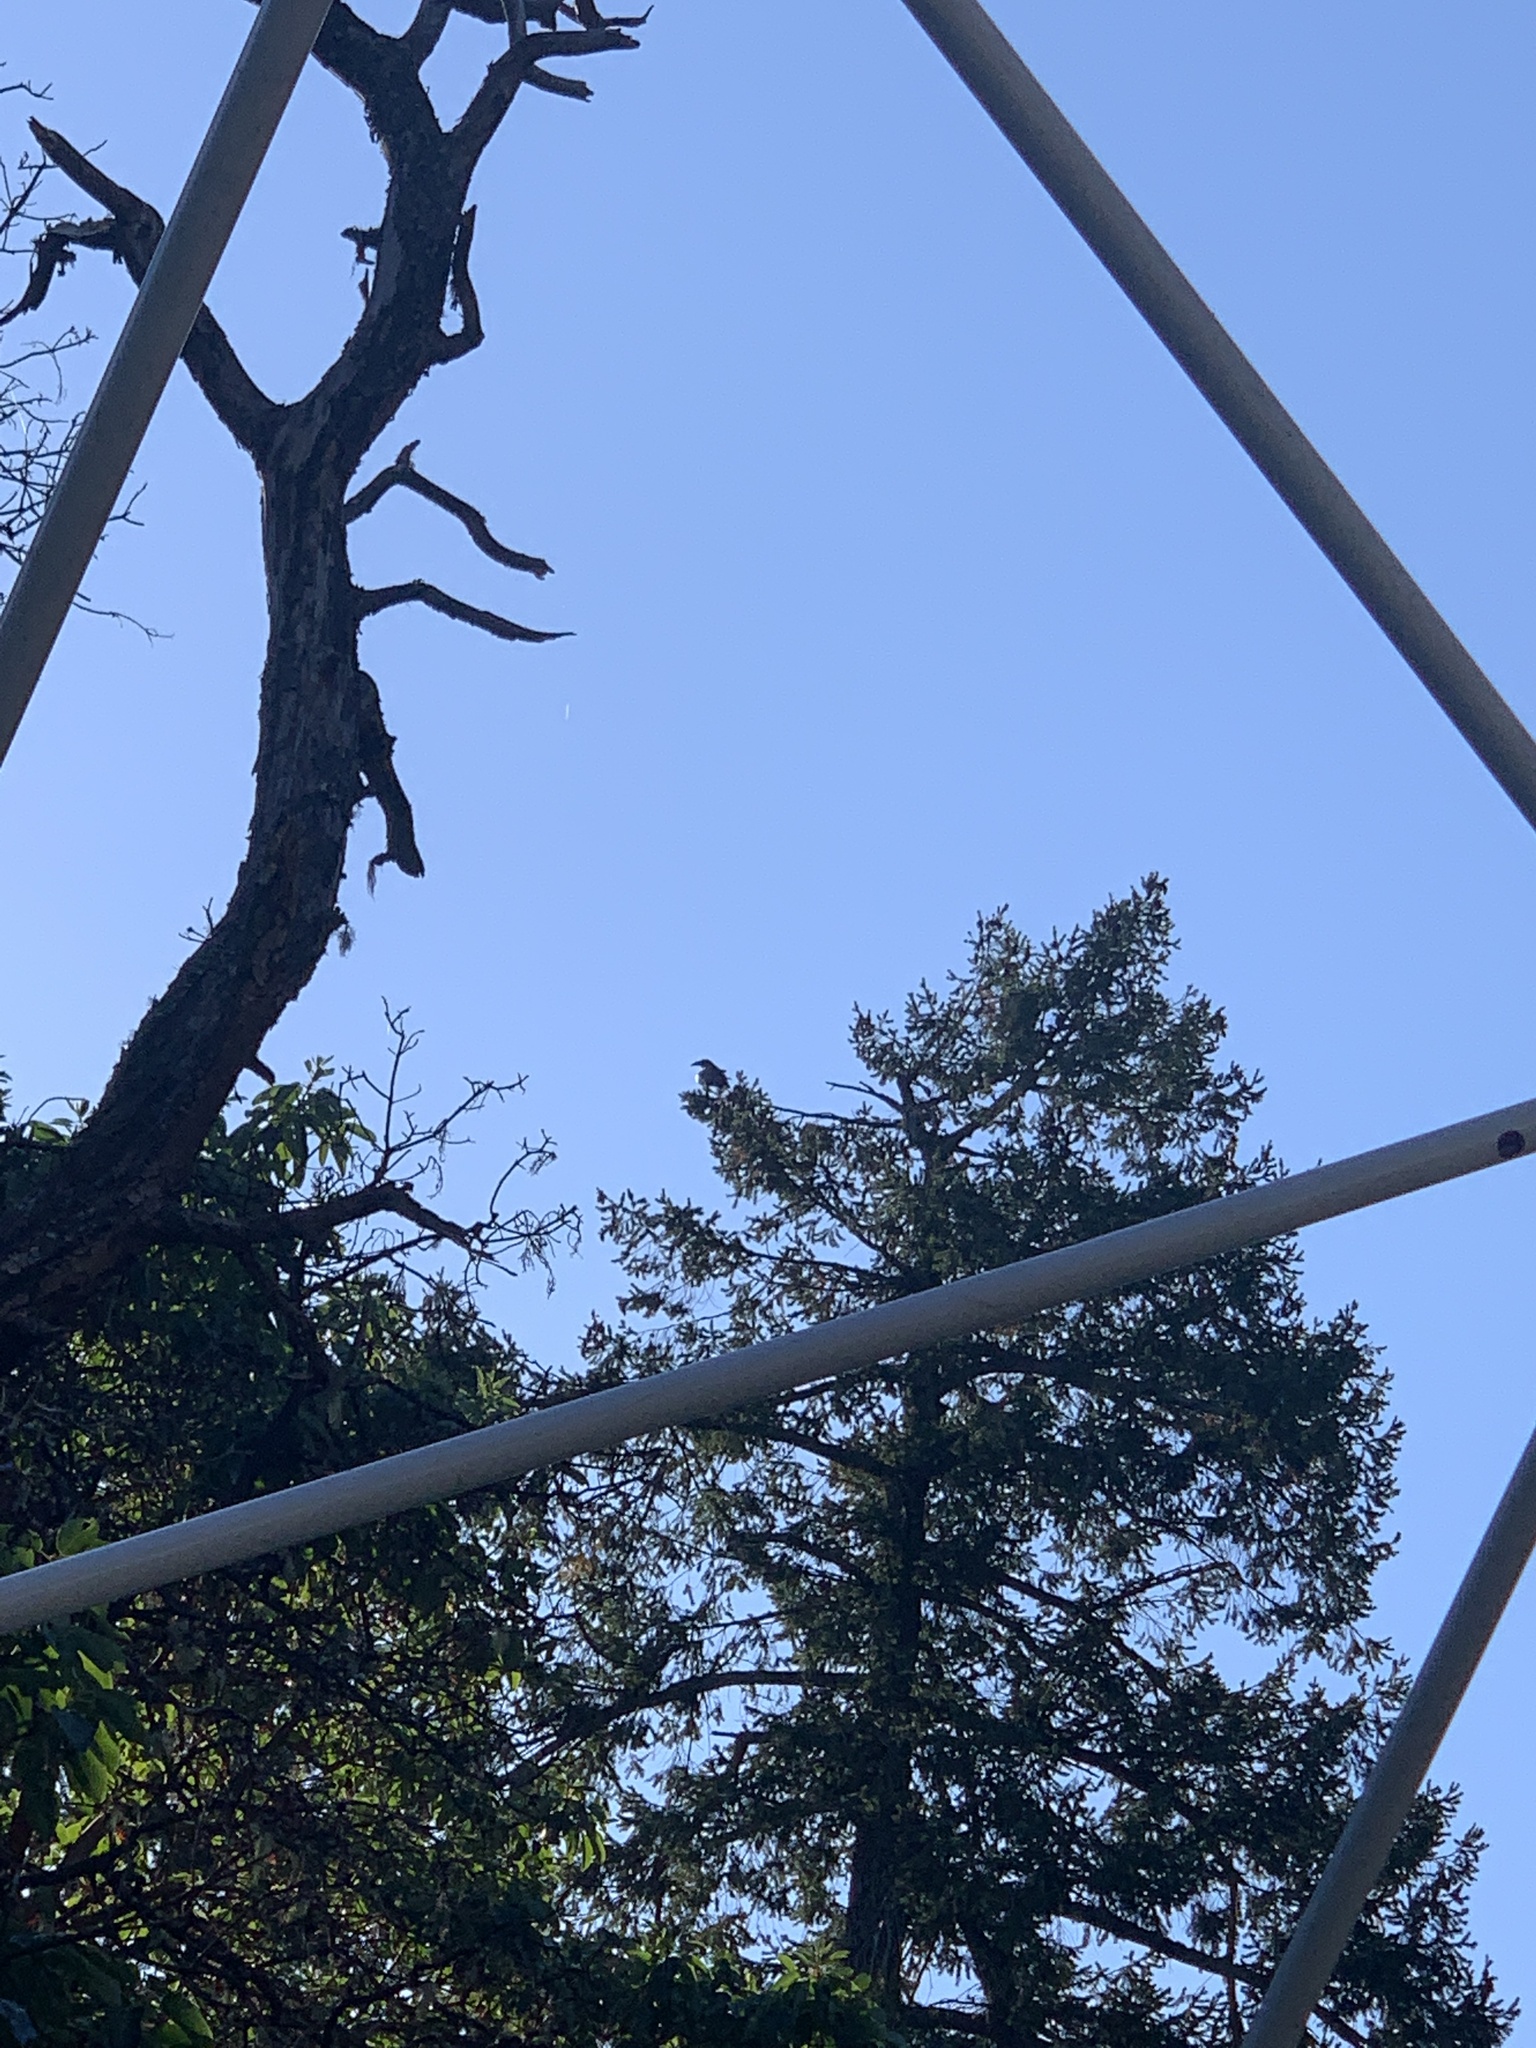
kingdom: Animalia
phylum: Chordata
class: Aves
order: Passeriformes
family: Corvidae
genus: Corvus
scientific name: Corvus corax
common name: Common raven
